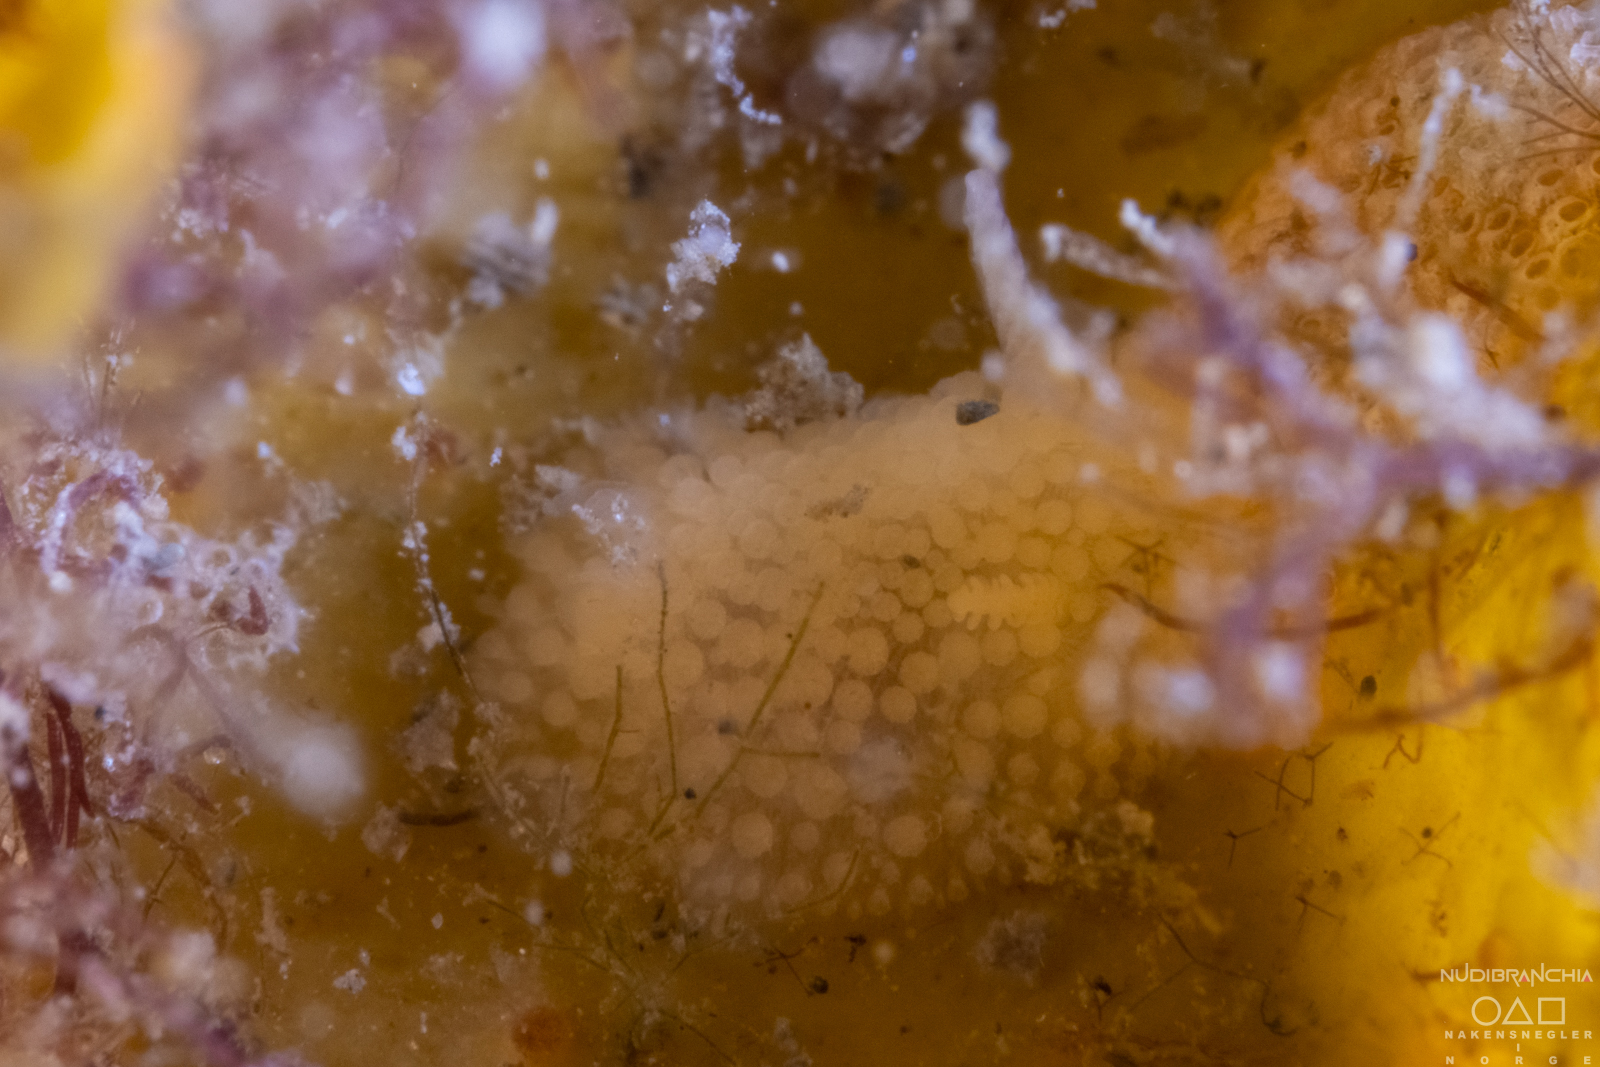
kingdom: Animalia
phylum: Mollusca
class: Gastropoda
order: Nudibranchia
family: Onchidorididae
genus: Onchidoris
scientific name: Onchidoris muricata
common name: Rough doris
